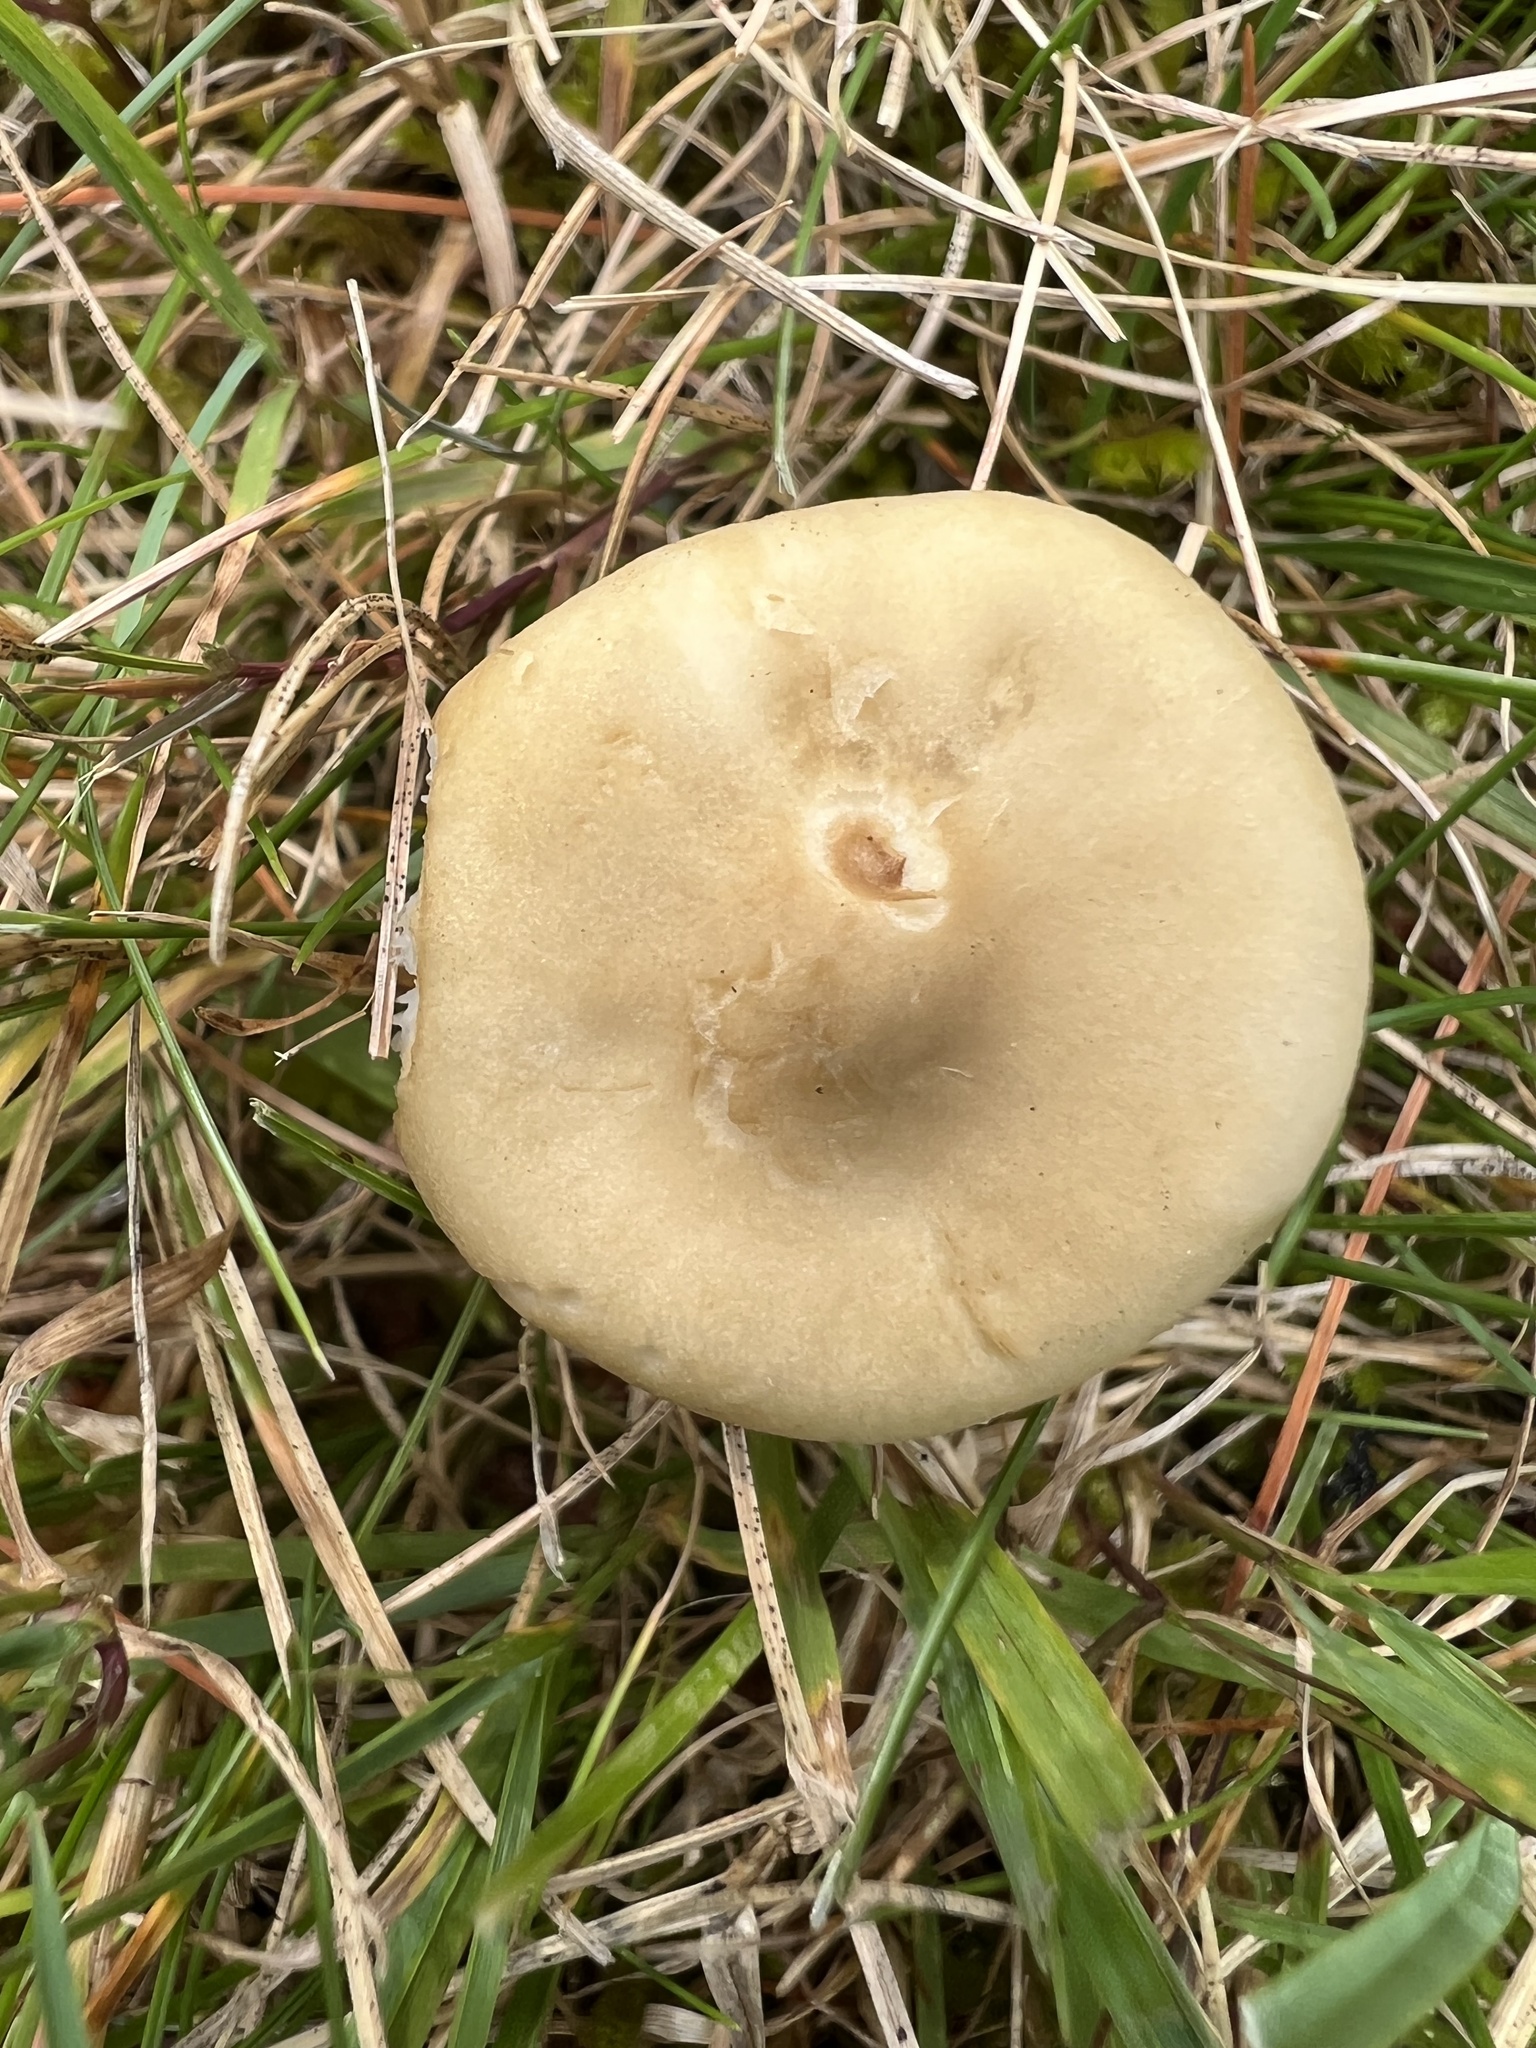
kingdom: Fungi
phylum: Basidiomycota
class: Agaricomycetes
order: Agaricales
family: Tricholomataceae
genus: Melanoleuca
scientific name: Melanoleuca graminicola
